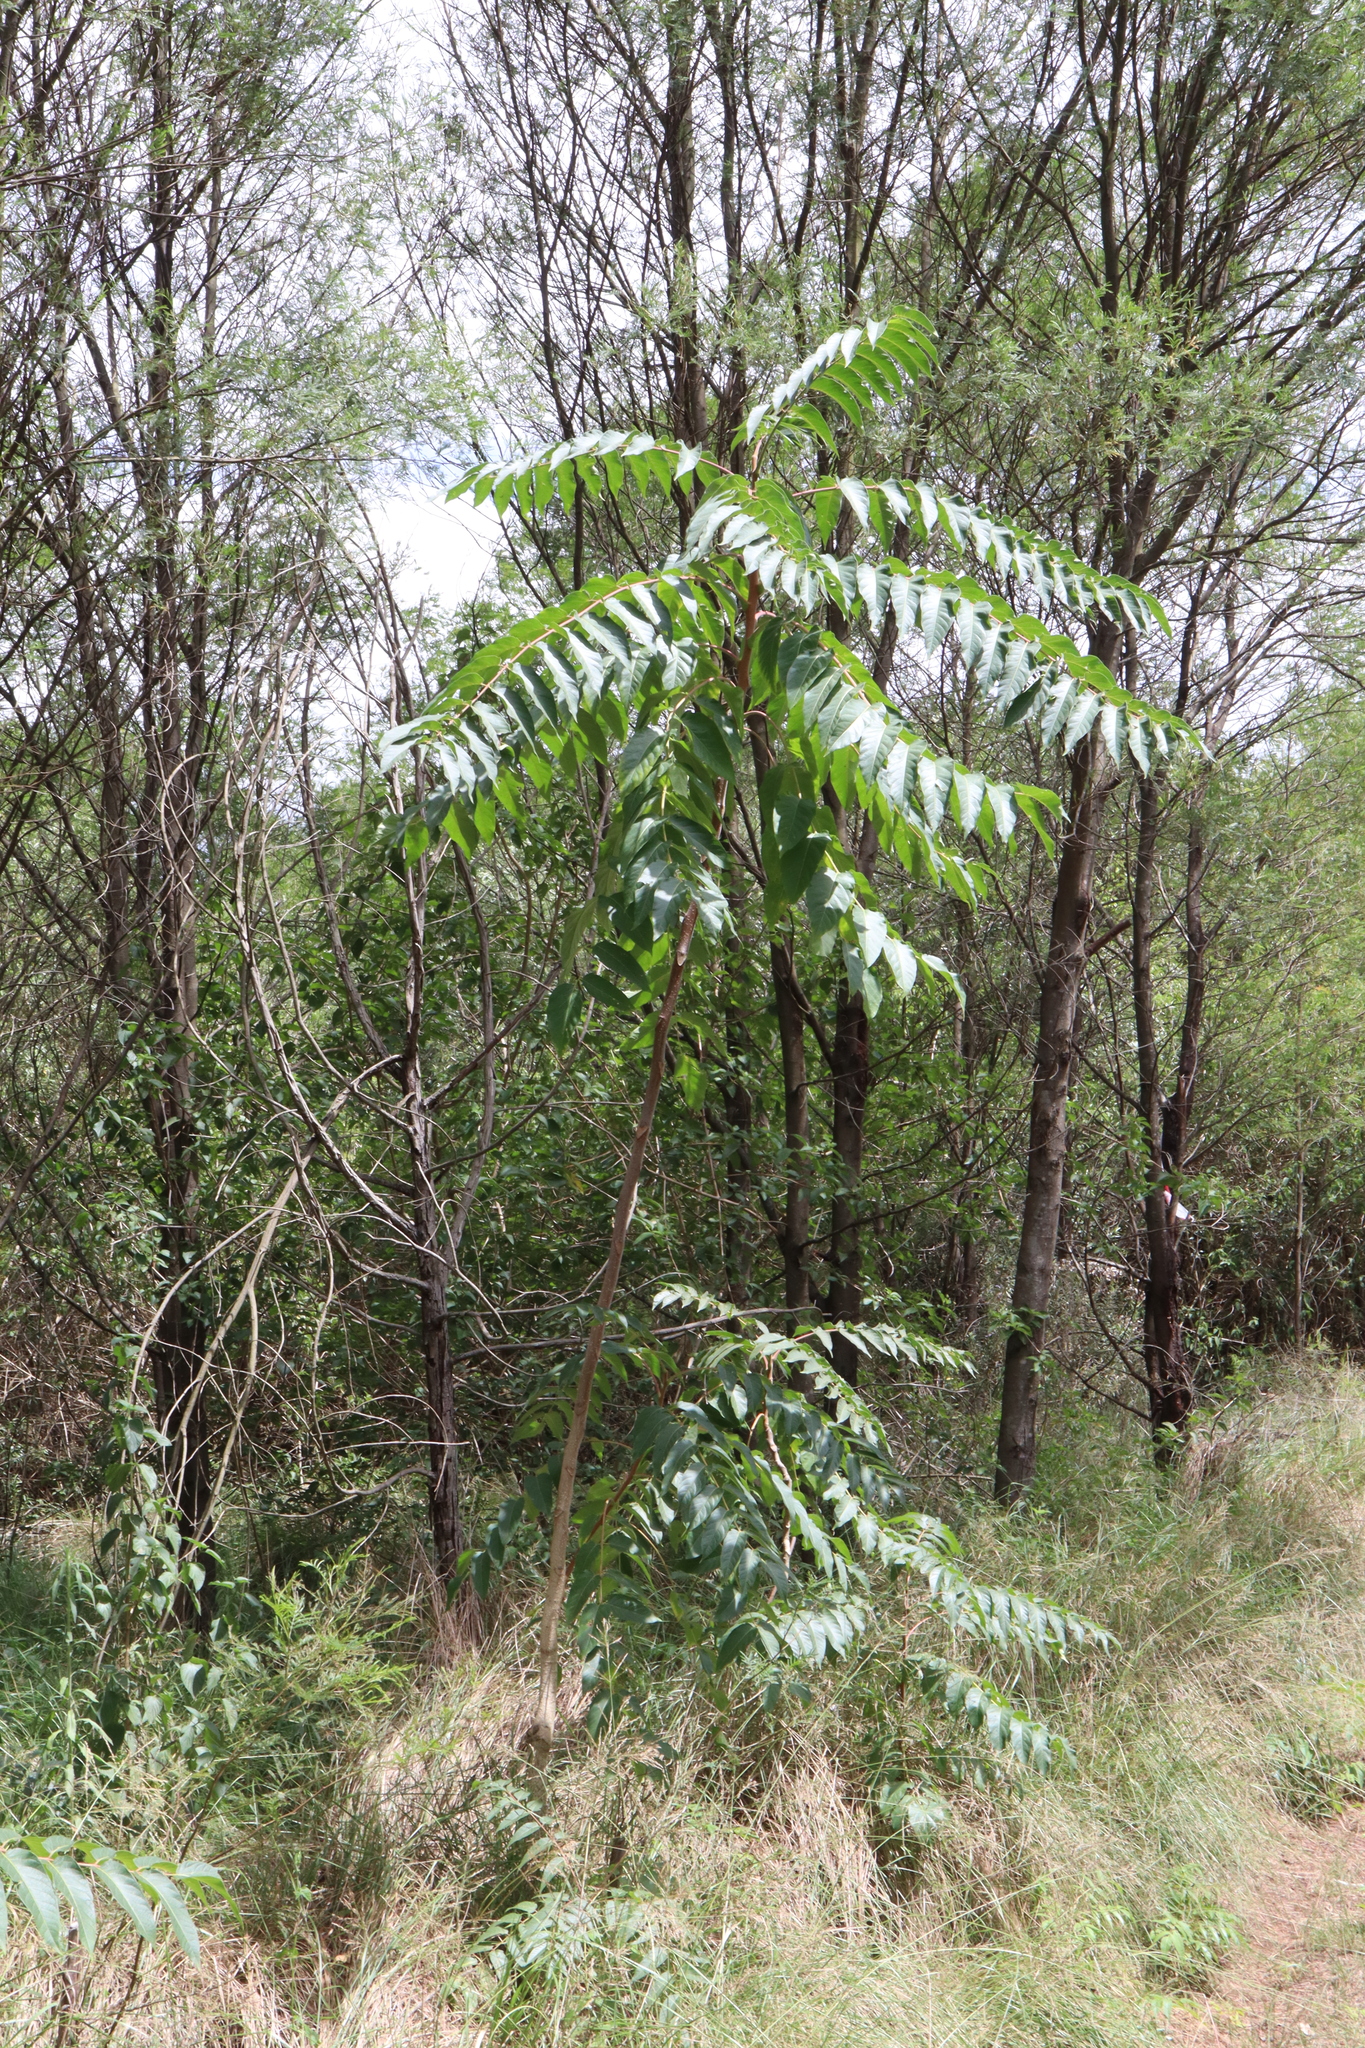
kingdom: Plantae
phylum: Tracheophyta
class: Magnoliopsida
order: Sapindales
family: Simaroubaceae
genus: Ailanthus
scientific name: Ailanthus altissima
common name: Tree-of-heaven
